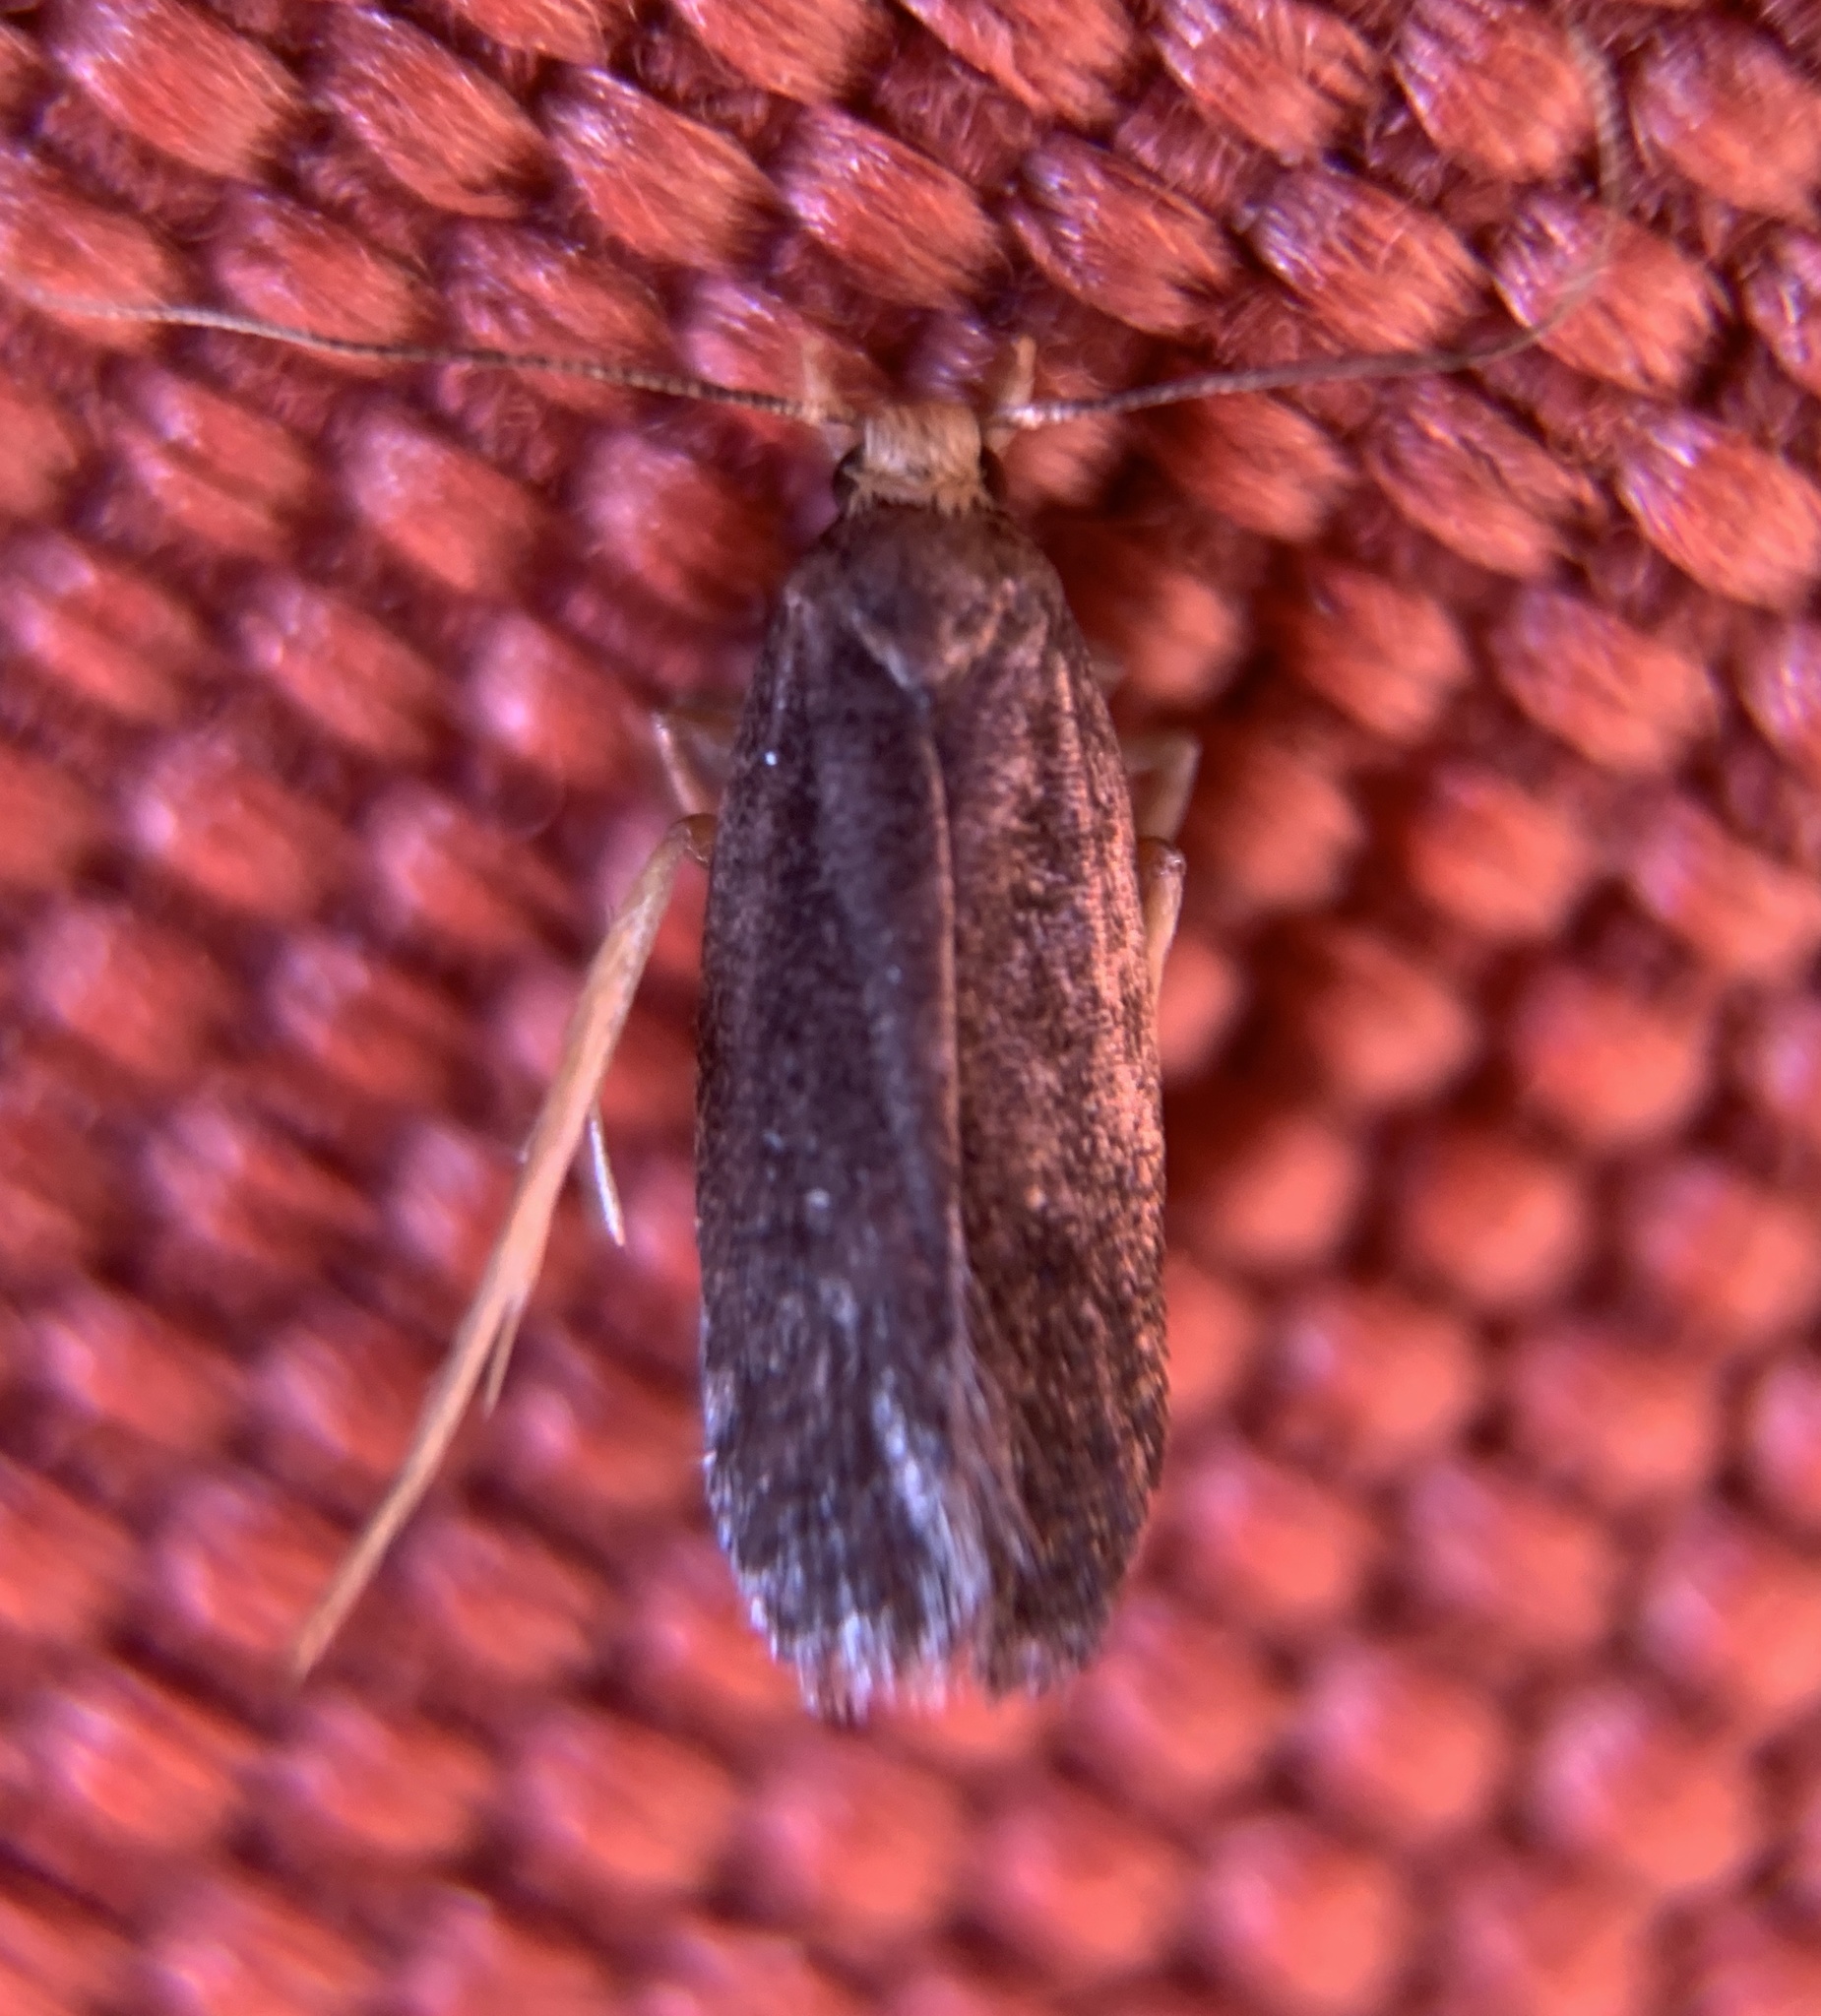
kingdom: Animalia
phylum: Arthropoda
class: Insecta
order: Lepidoptera
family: Autostichidae
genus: Glyphidocera
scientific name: Glyphidocera lithodoxa
